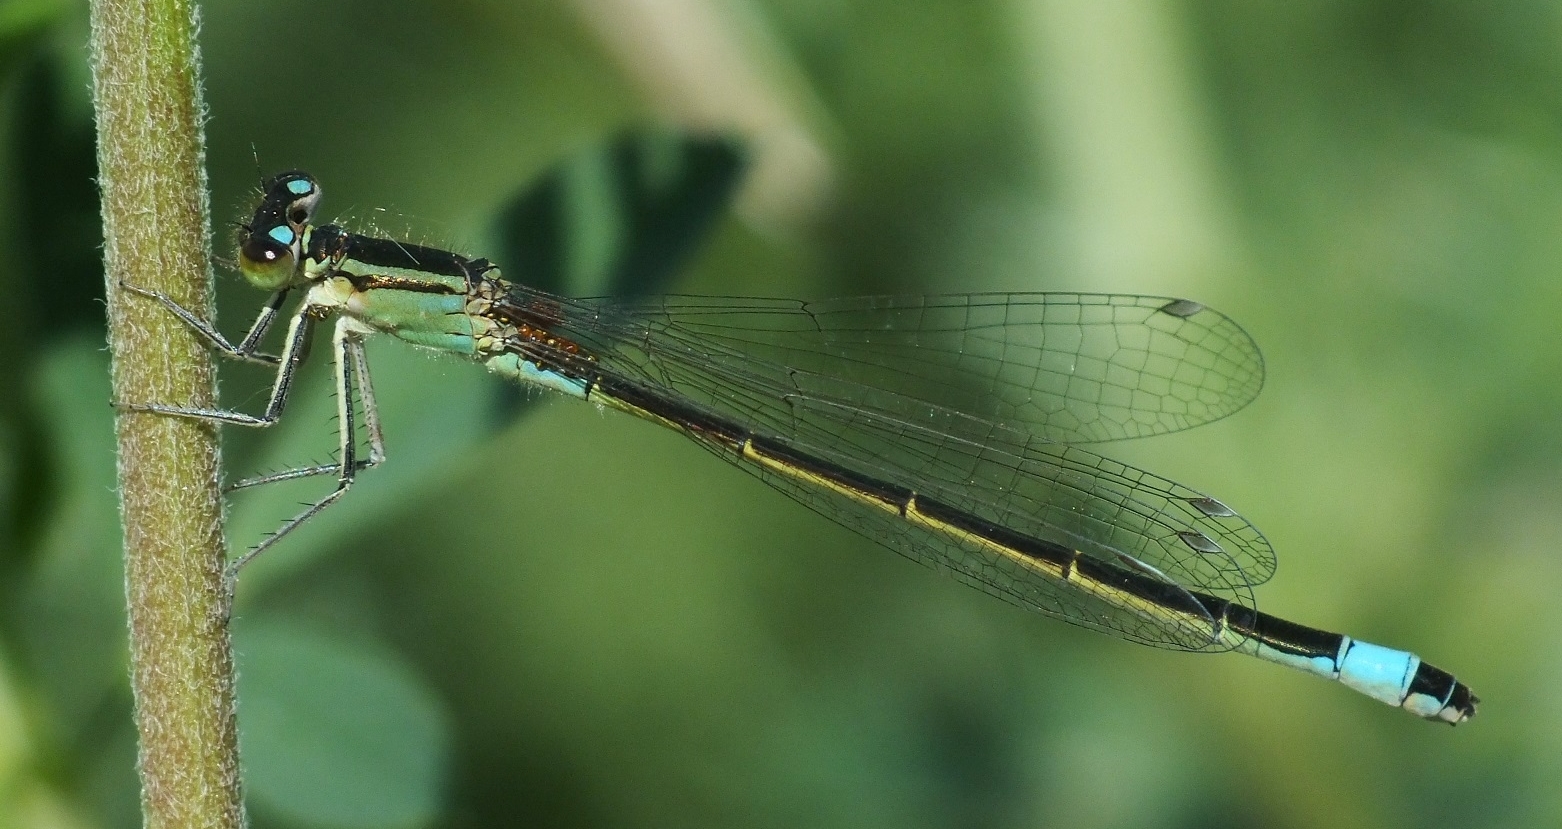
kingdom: Animalia
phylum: Arthropoda
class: Insecta
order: Odonata
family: Coenagrionidae
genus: Ischnura
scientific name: Ischnura elegans
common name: Blue-tailed damselfly
